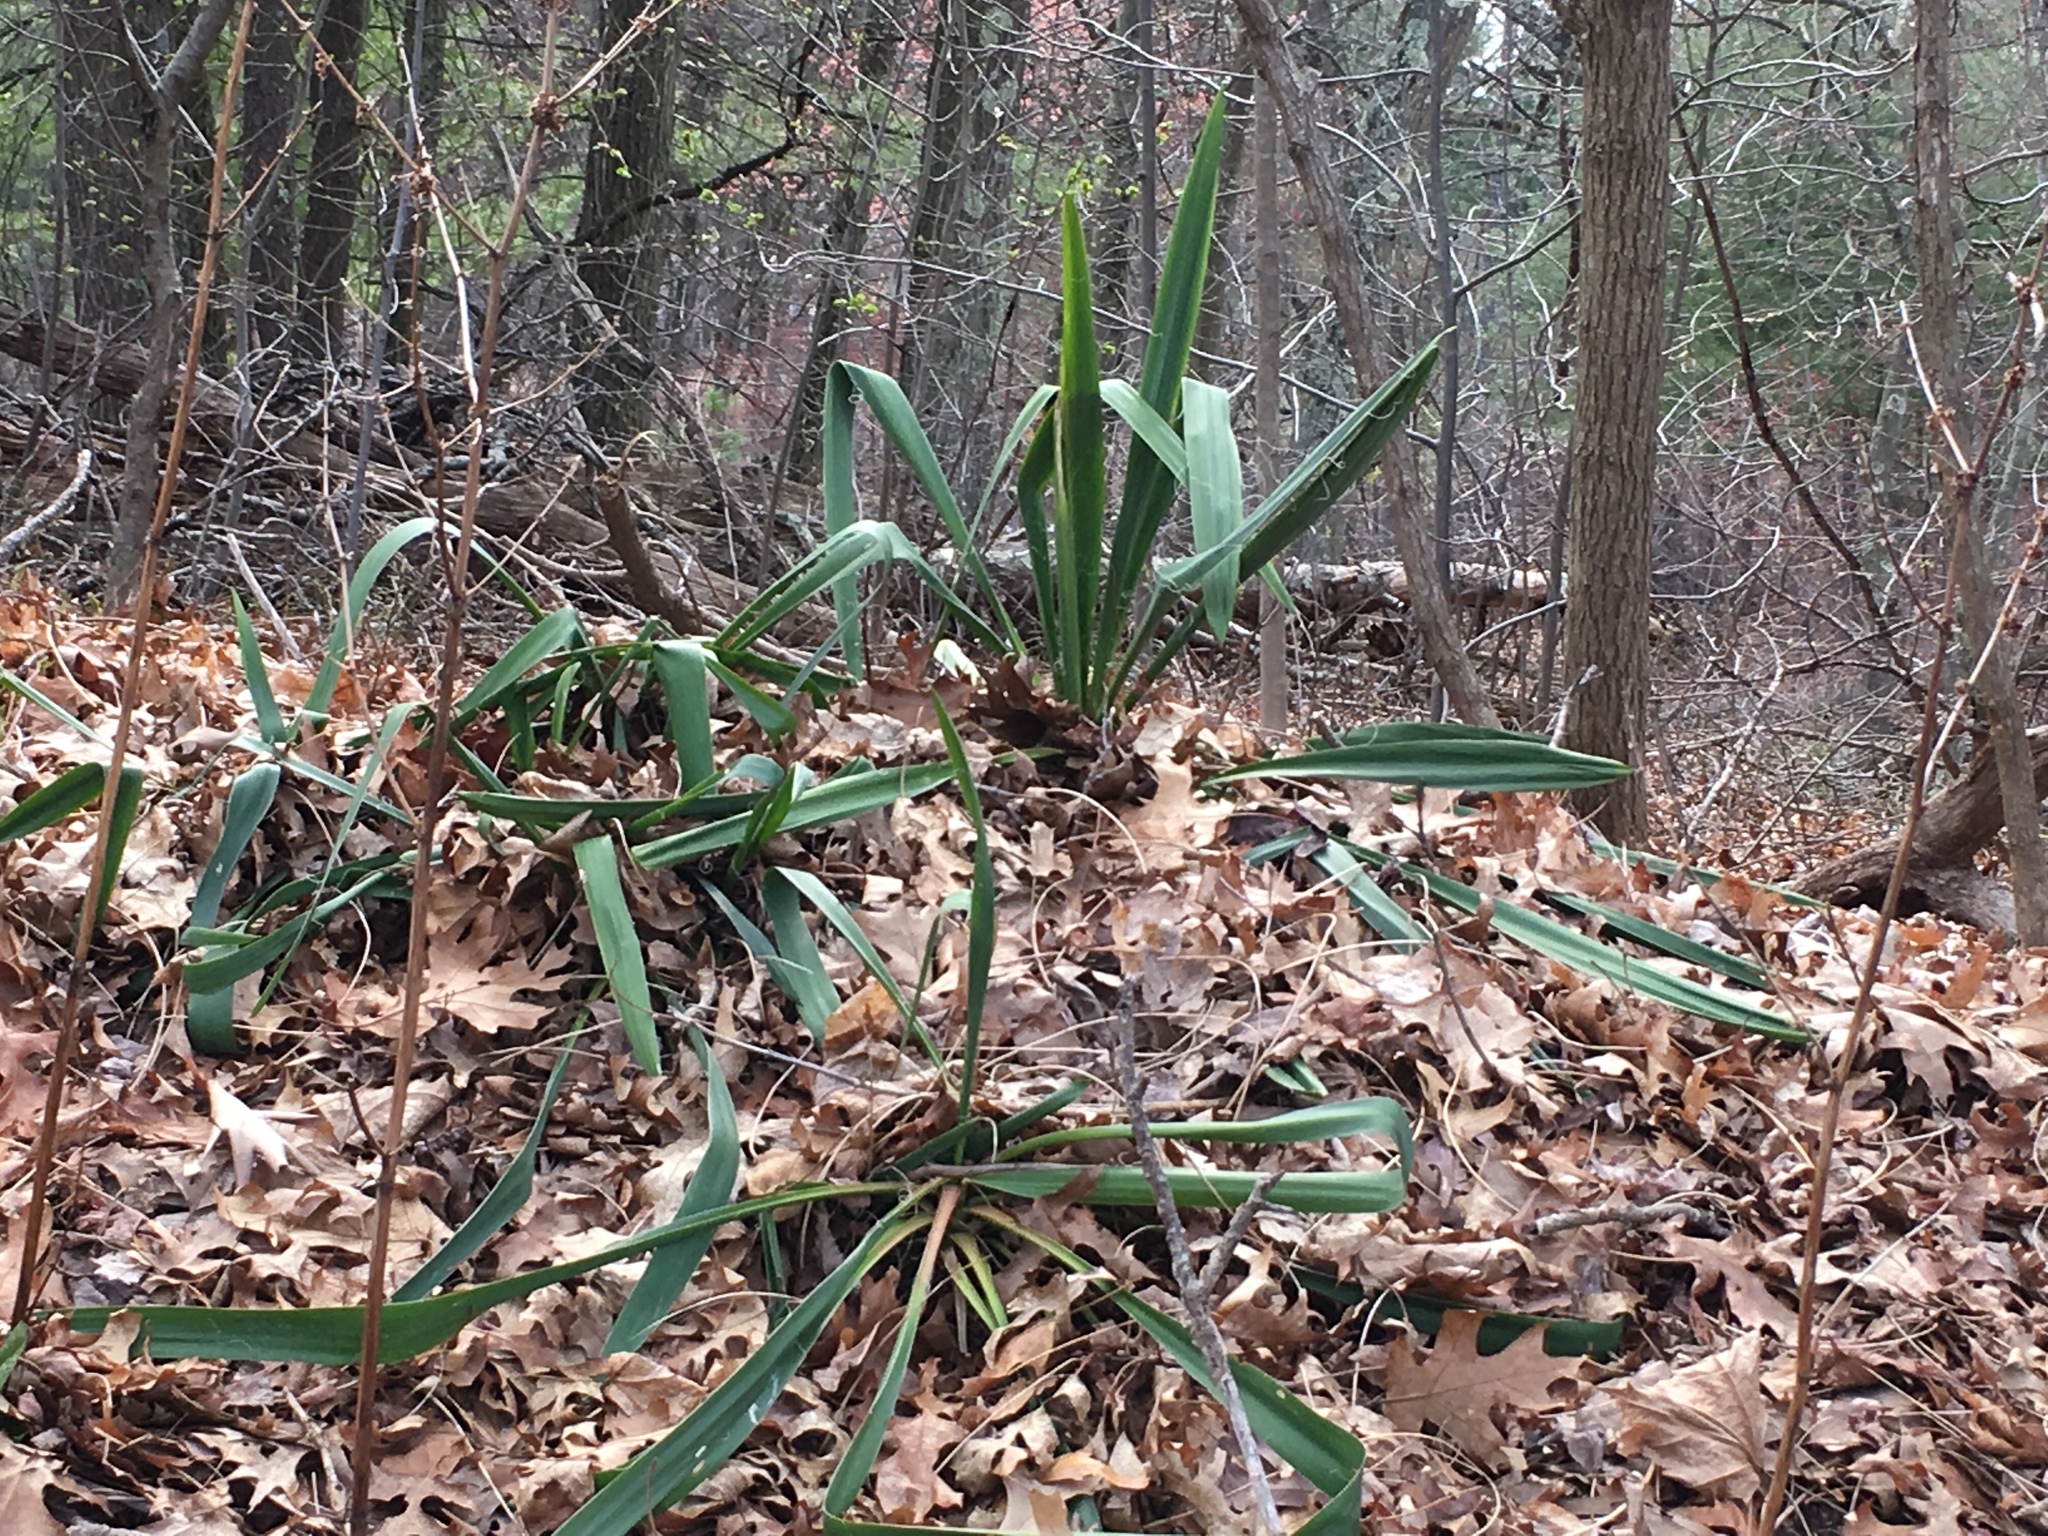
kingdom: Plantae
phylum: Tracheophyta
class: Liliopsida
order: Asparagales
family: Asparagaceae
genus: Yucca
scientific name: Yucca filamentosa
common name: Adam's-needle
